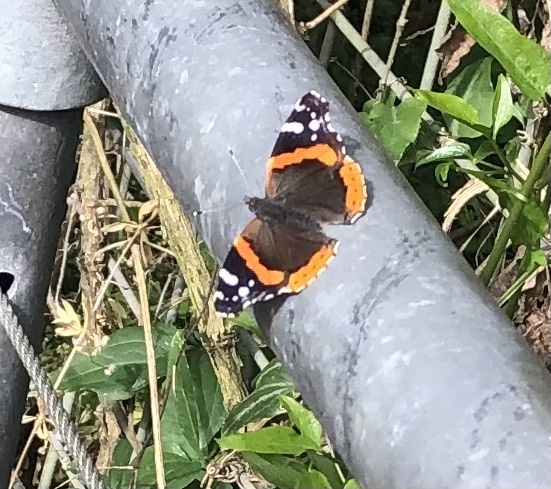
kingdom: Animalia
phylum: Arthropoda
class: Insecta
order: Lepidoptera
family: Nymphalidae
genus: Vanessa
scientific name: Vanessa atalanta
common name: Red admiral
